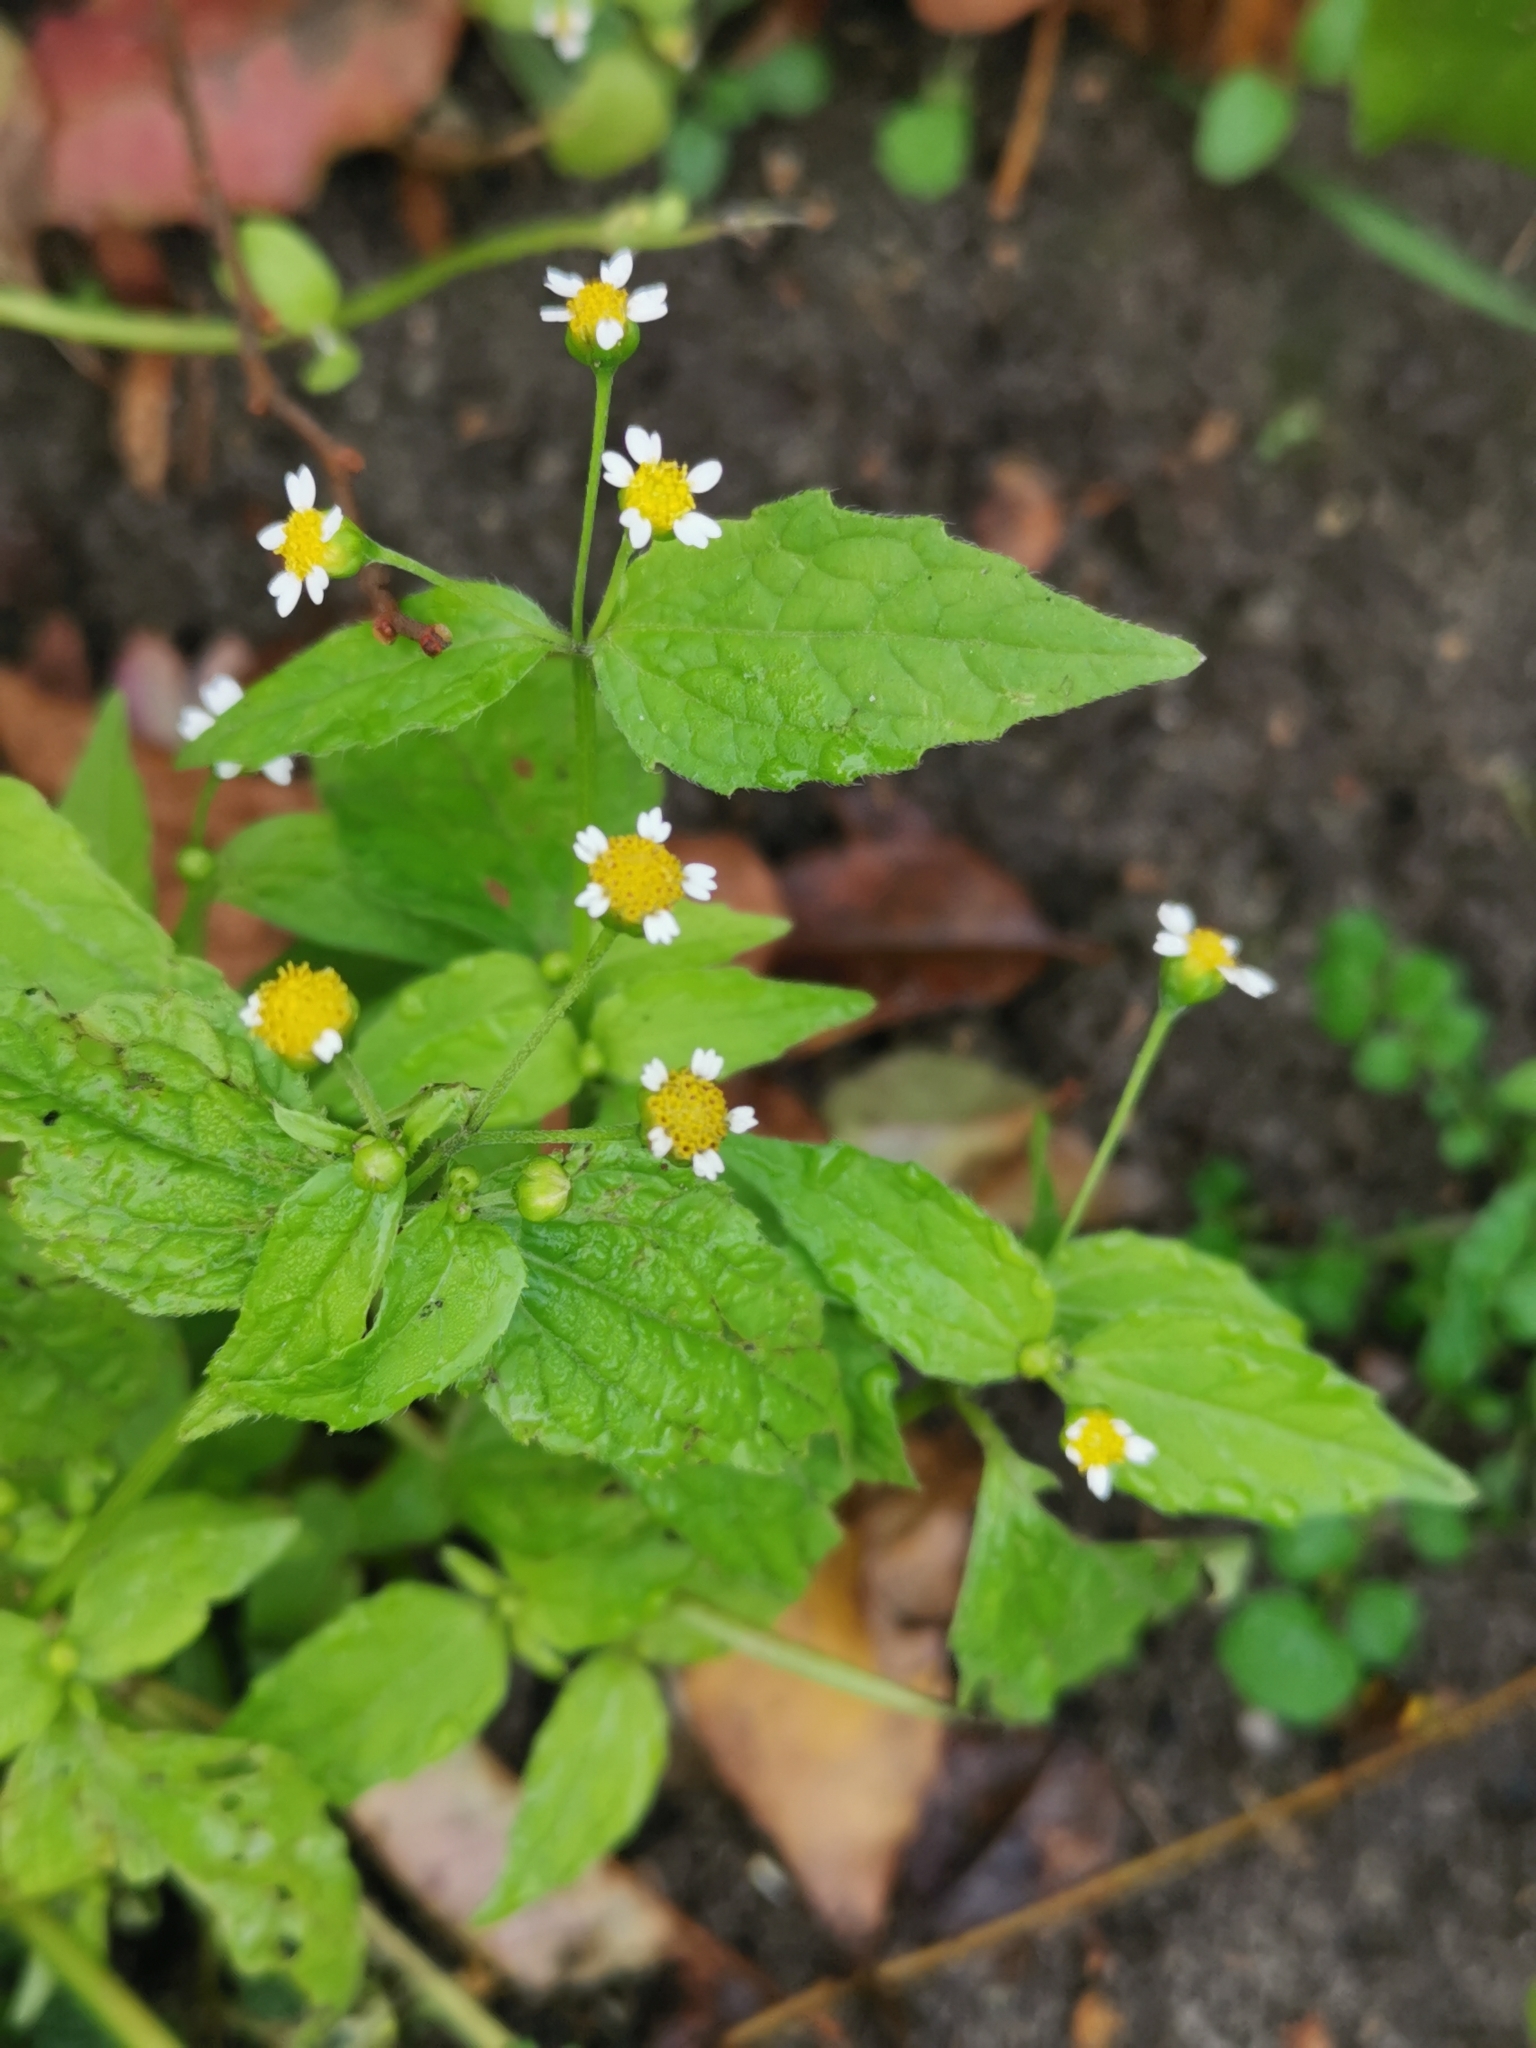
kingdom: Plantae
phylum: Tracheophyta
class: Magnoliopsida
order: Asterales
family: Asteraceae
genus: Galinsoga
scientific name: Galinsoga parviflora
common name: Gallant soldier
